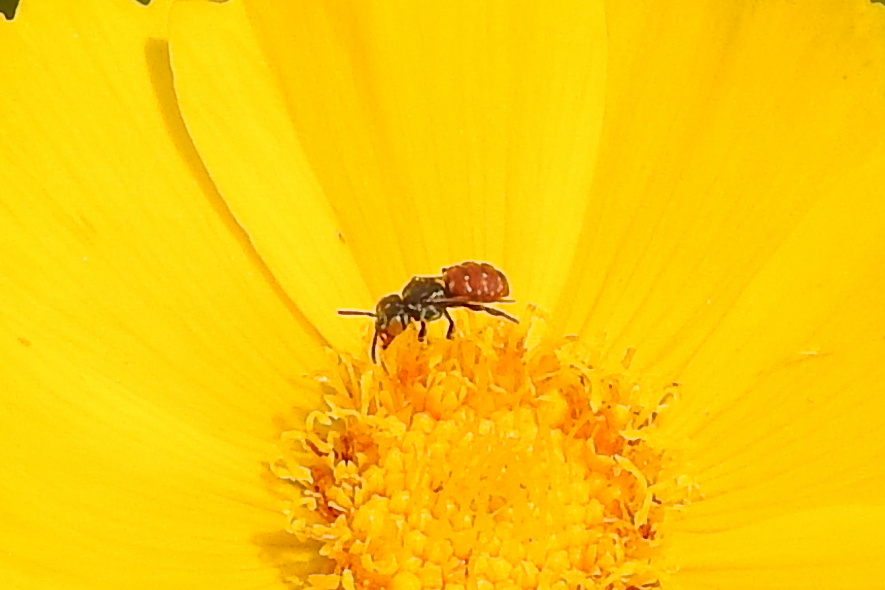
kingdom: Animalia
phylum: Arthropoda
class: Insecta
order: Hymenoptera
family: Apidae
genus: Holcopasites
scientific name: Holcopasites calliopsidis
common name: Calliopsis cuckoo nomad bee
